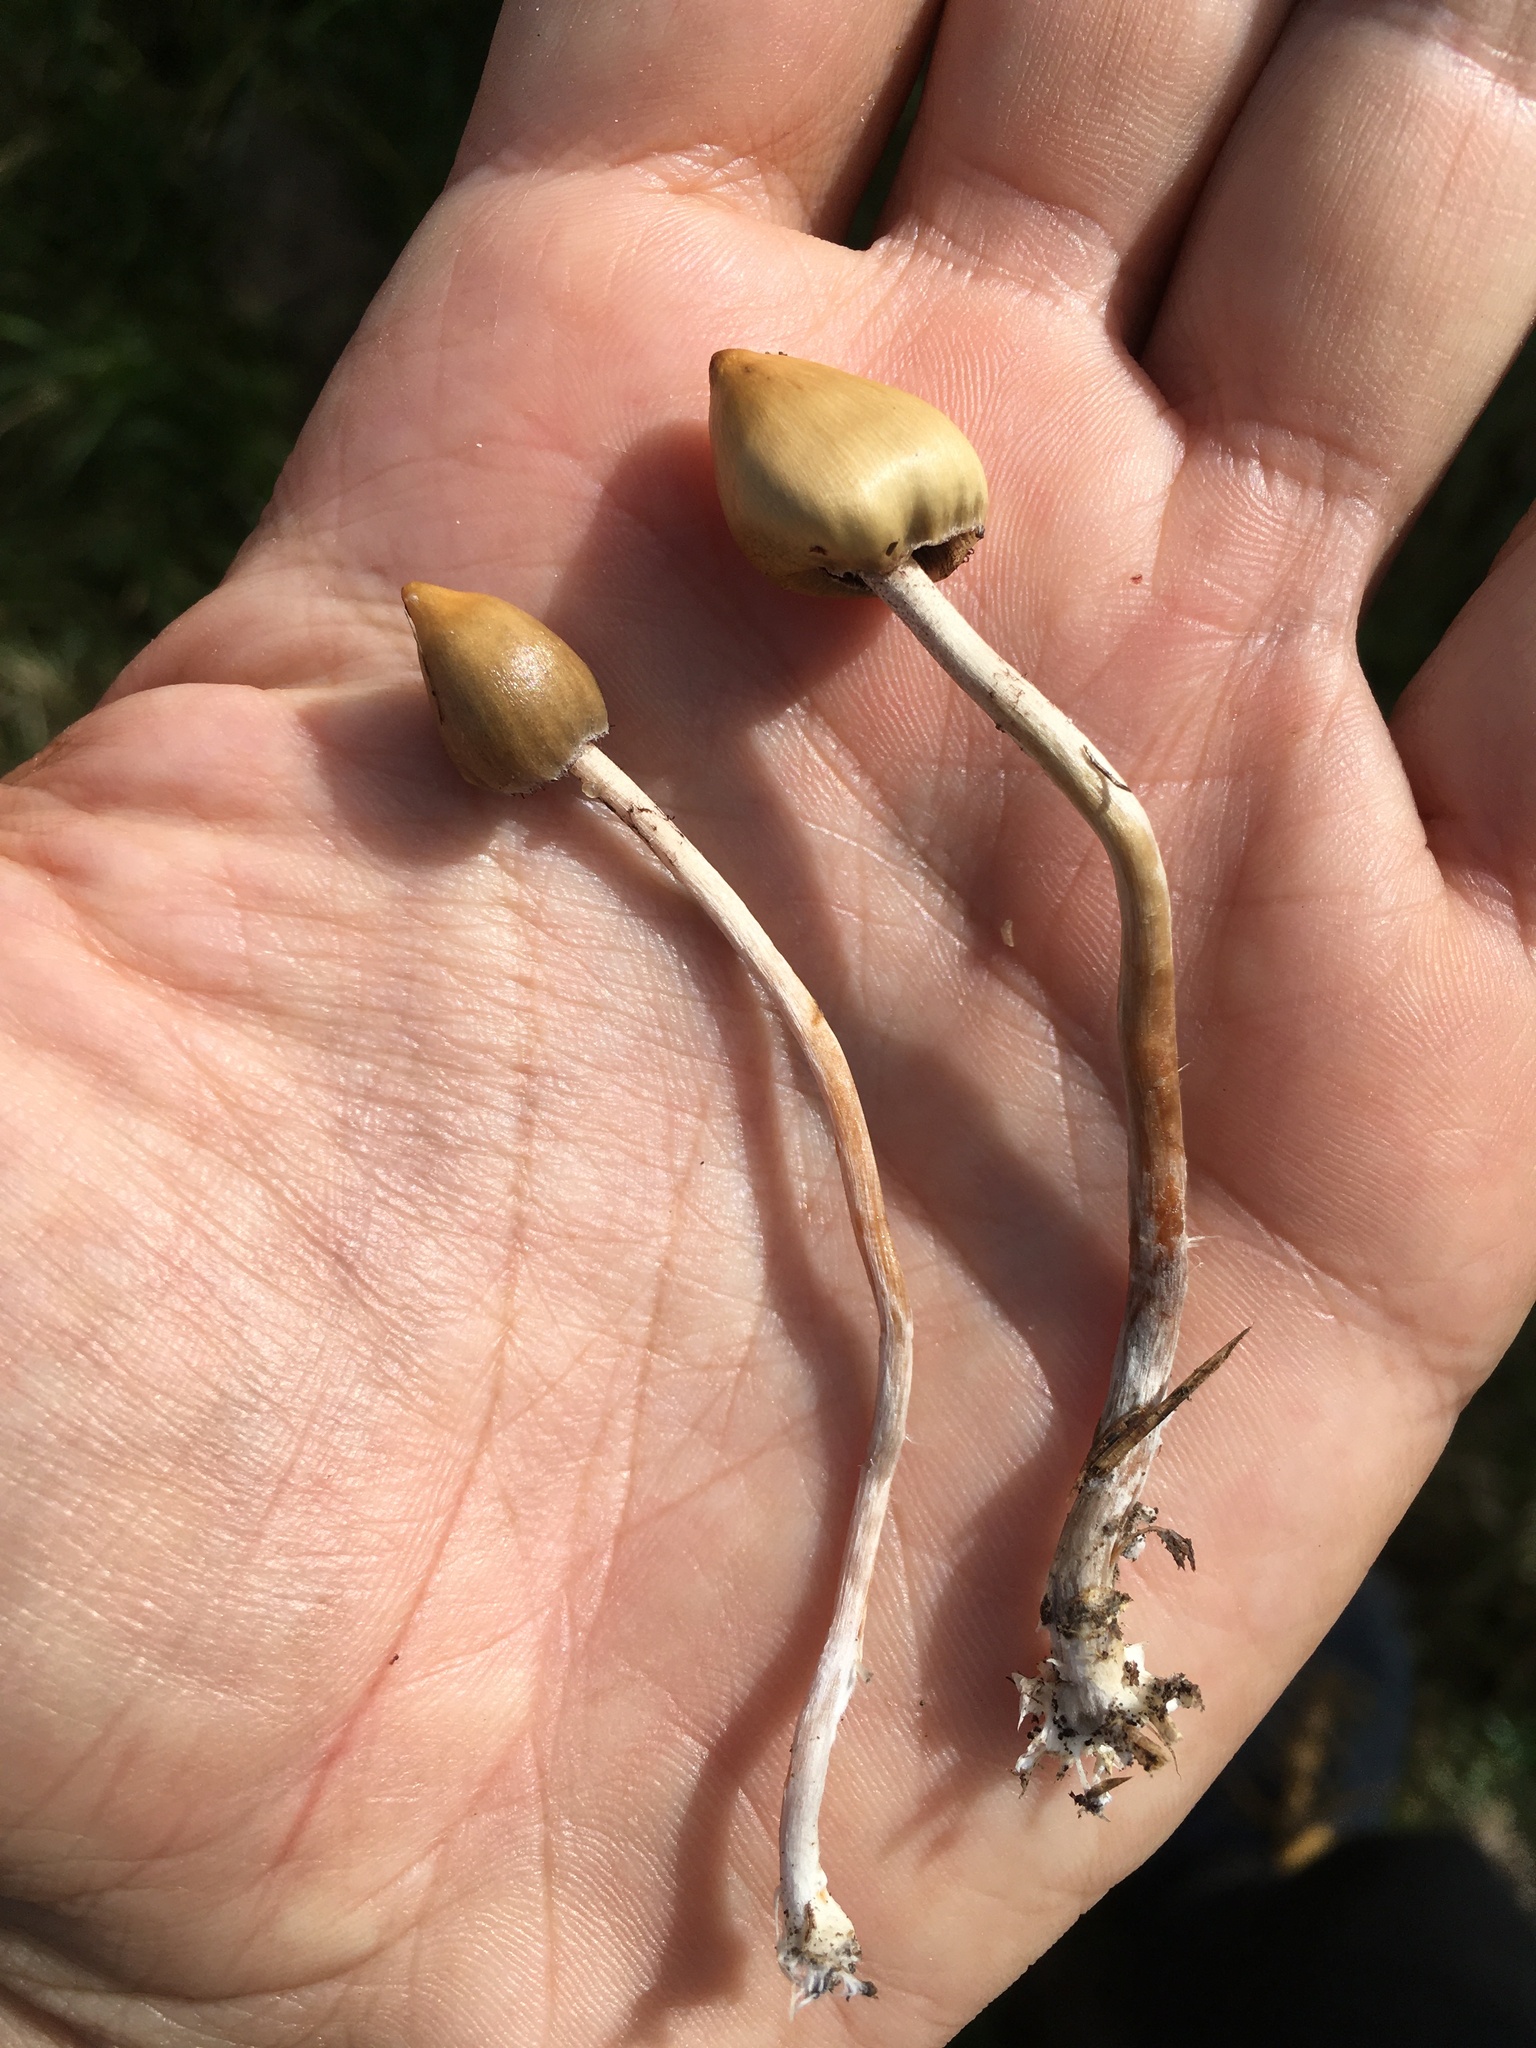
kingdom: Fungi
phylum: Basidiomycota
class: Agaricomycetes
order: Agaricales
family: Hymenogastraceae
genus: Psilocybe
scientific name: Psilocybe semilanceata
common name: Liberty cap
